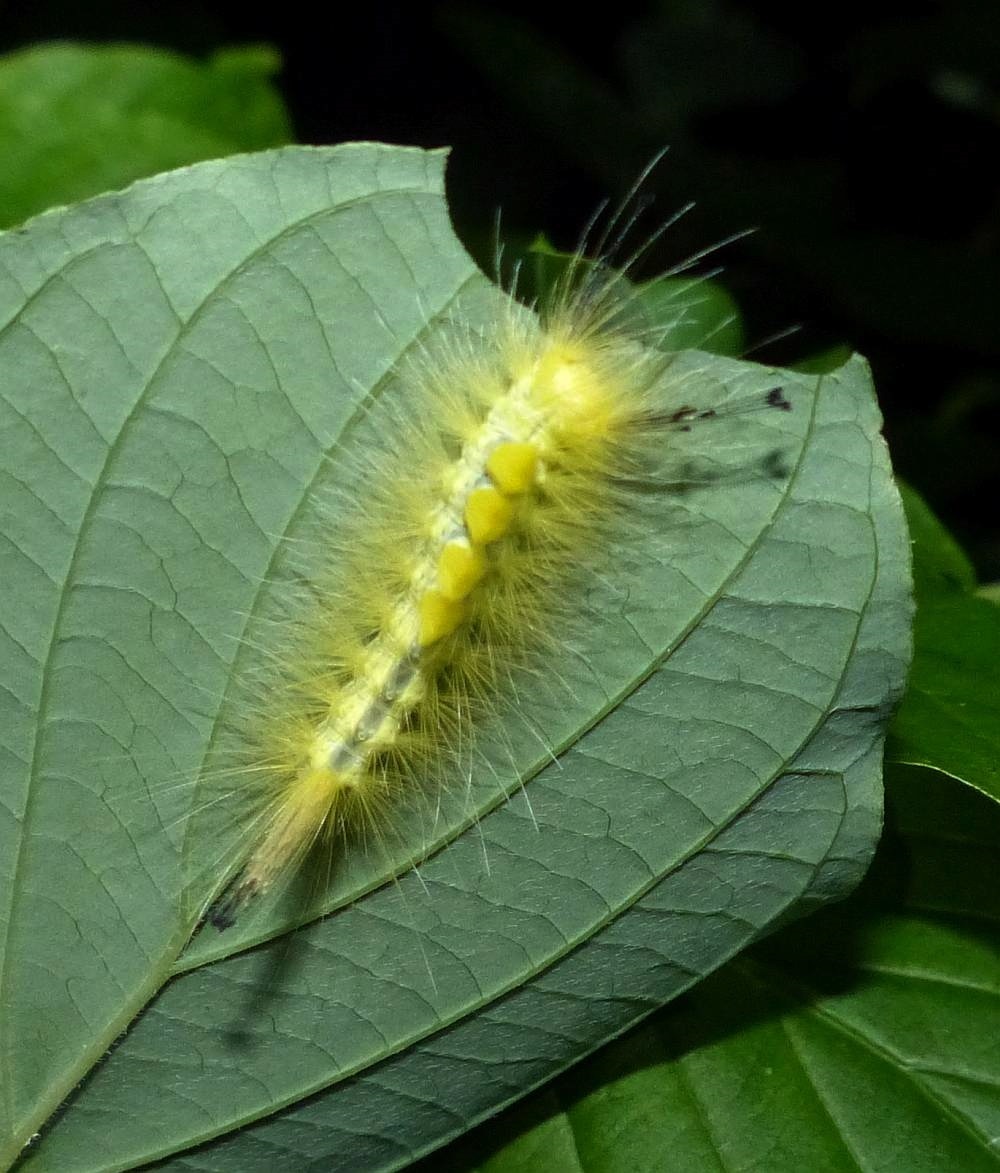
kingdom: Animalia
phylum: Arthropoda
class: Insecta
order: Lepidoptera
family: Erebidae
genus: Orgyia
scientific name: Orgyia definita
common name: Definite tussock moth
